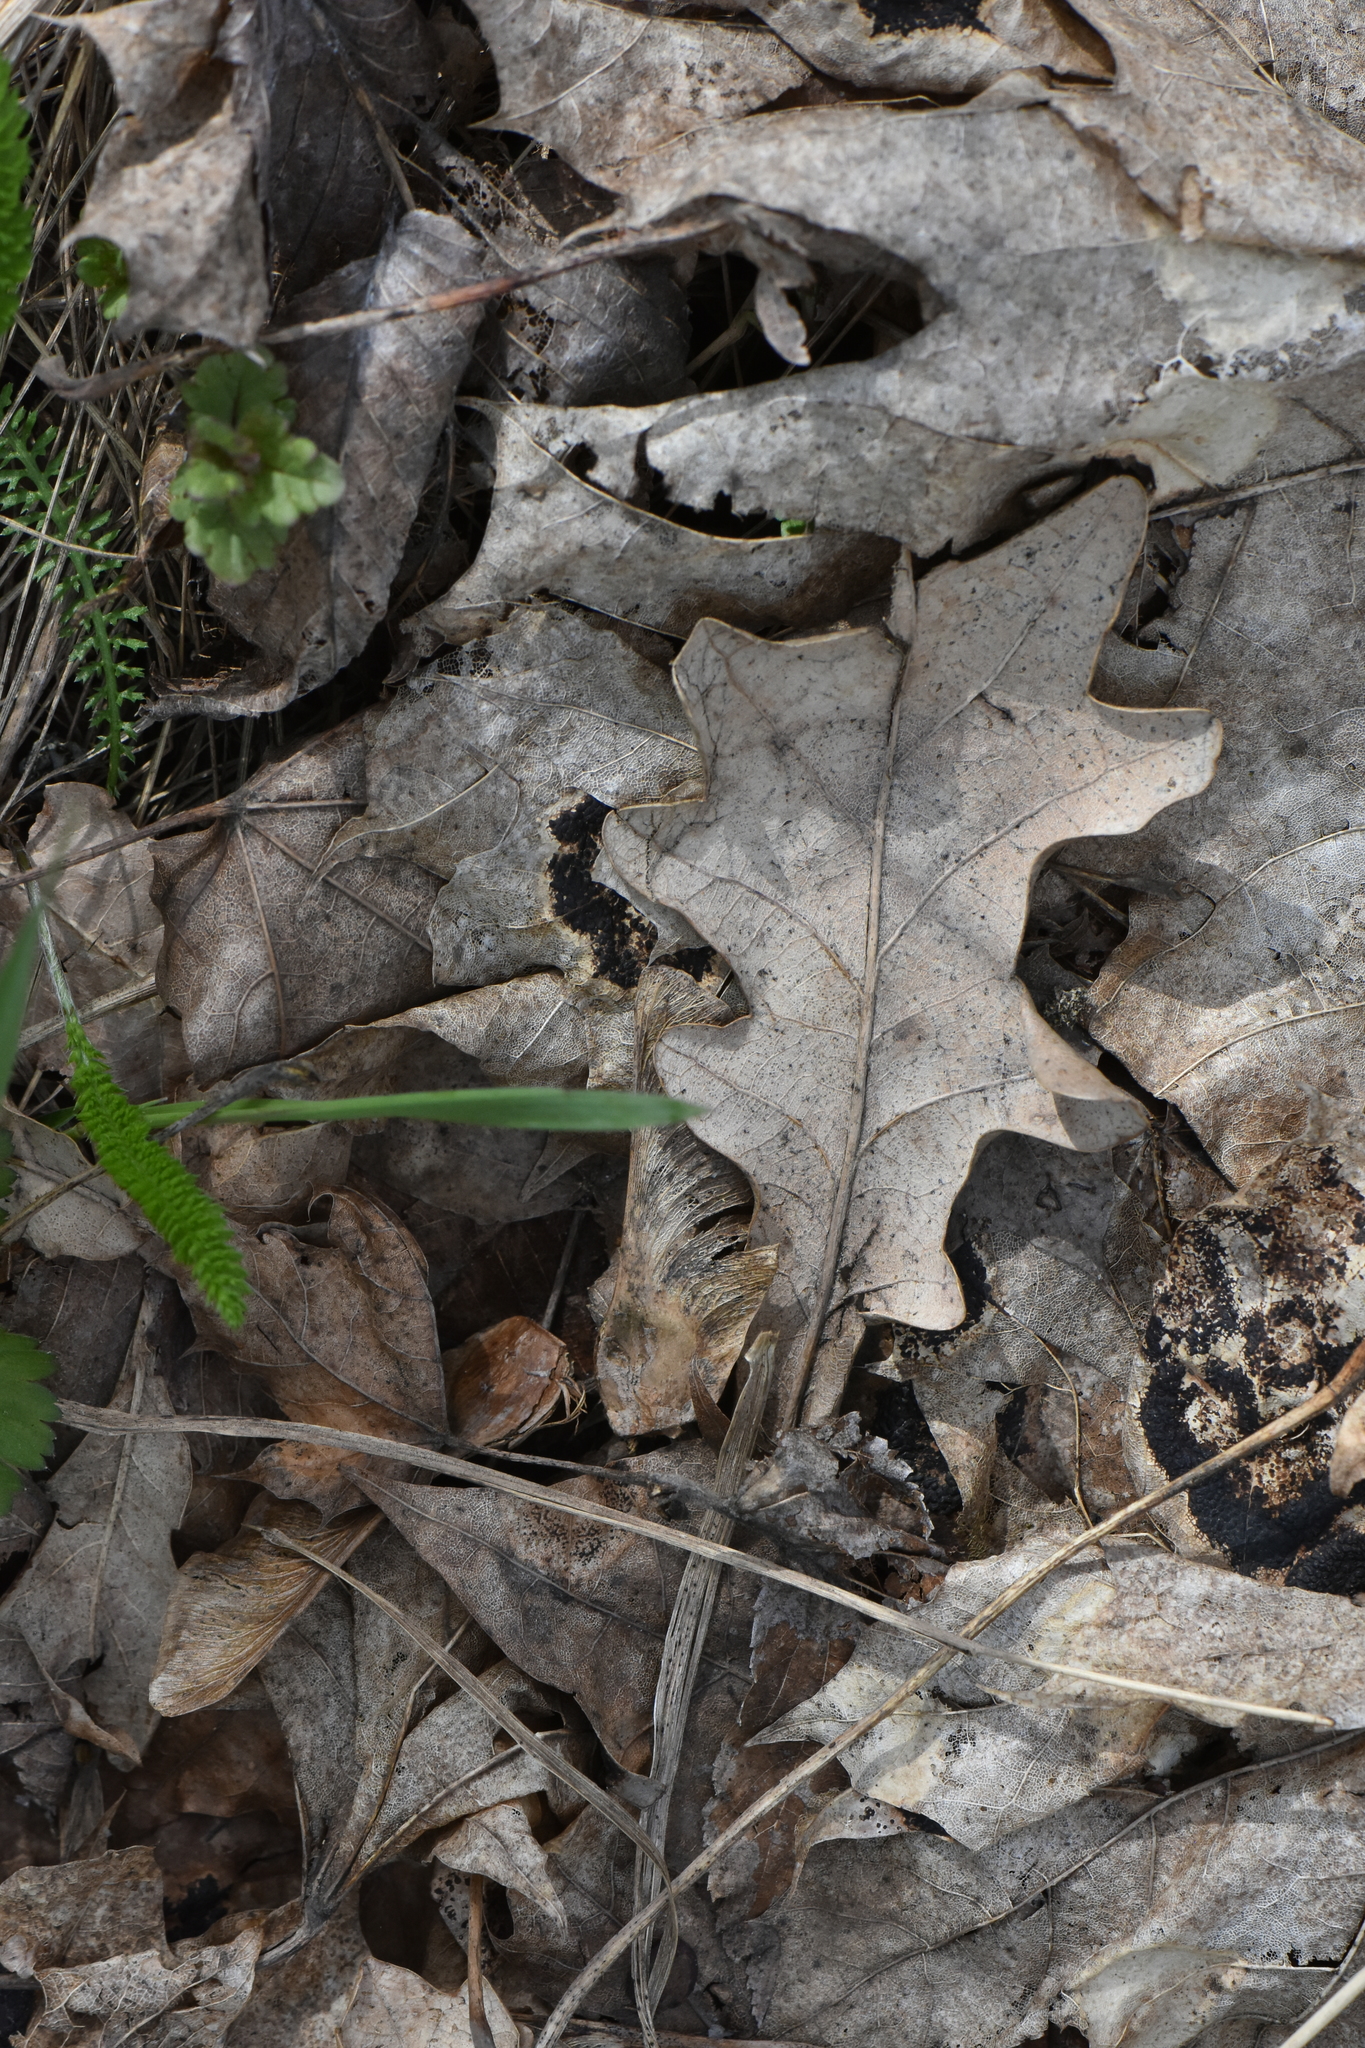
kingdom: Plantae
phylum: Tracheophyta
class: Magnoliopsida
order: Fagales
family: Fagaceae
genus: Quercus
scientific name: Quercus robur
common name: Pedunculate oak
